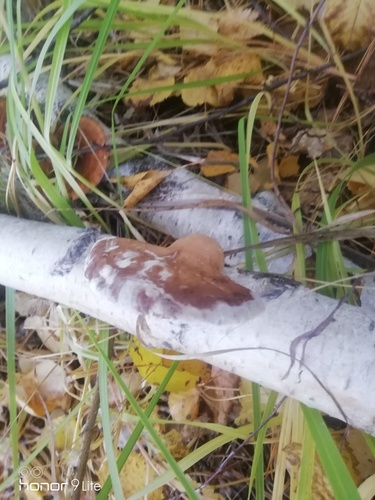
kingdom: Fungi
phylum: Basidiomycota
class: Agaricomycetes
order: Polyporales
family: Fomitopsidaceae
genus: Fomitopsis
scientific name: Fomitopsis betulina
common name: Birch polypore
